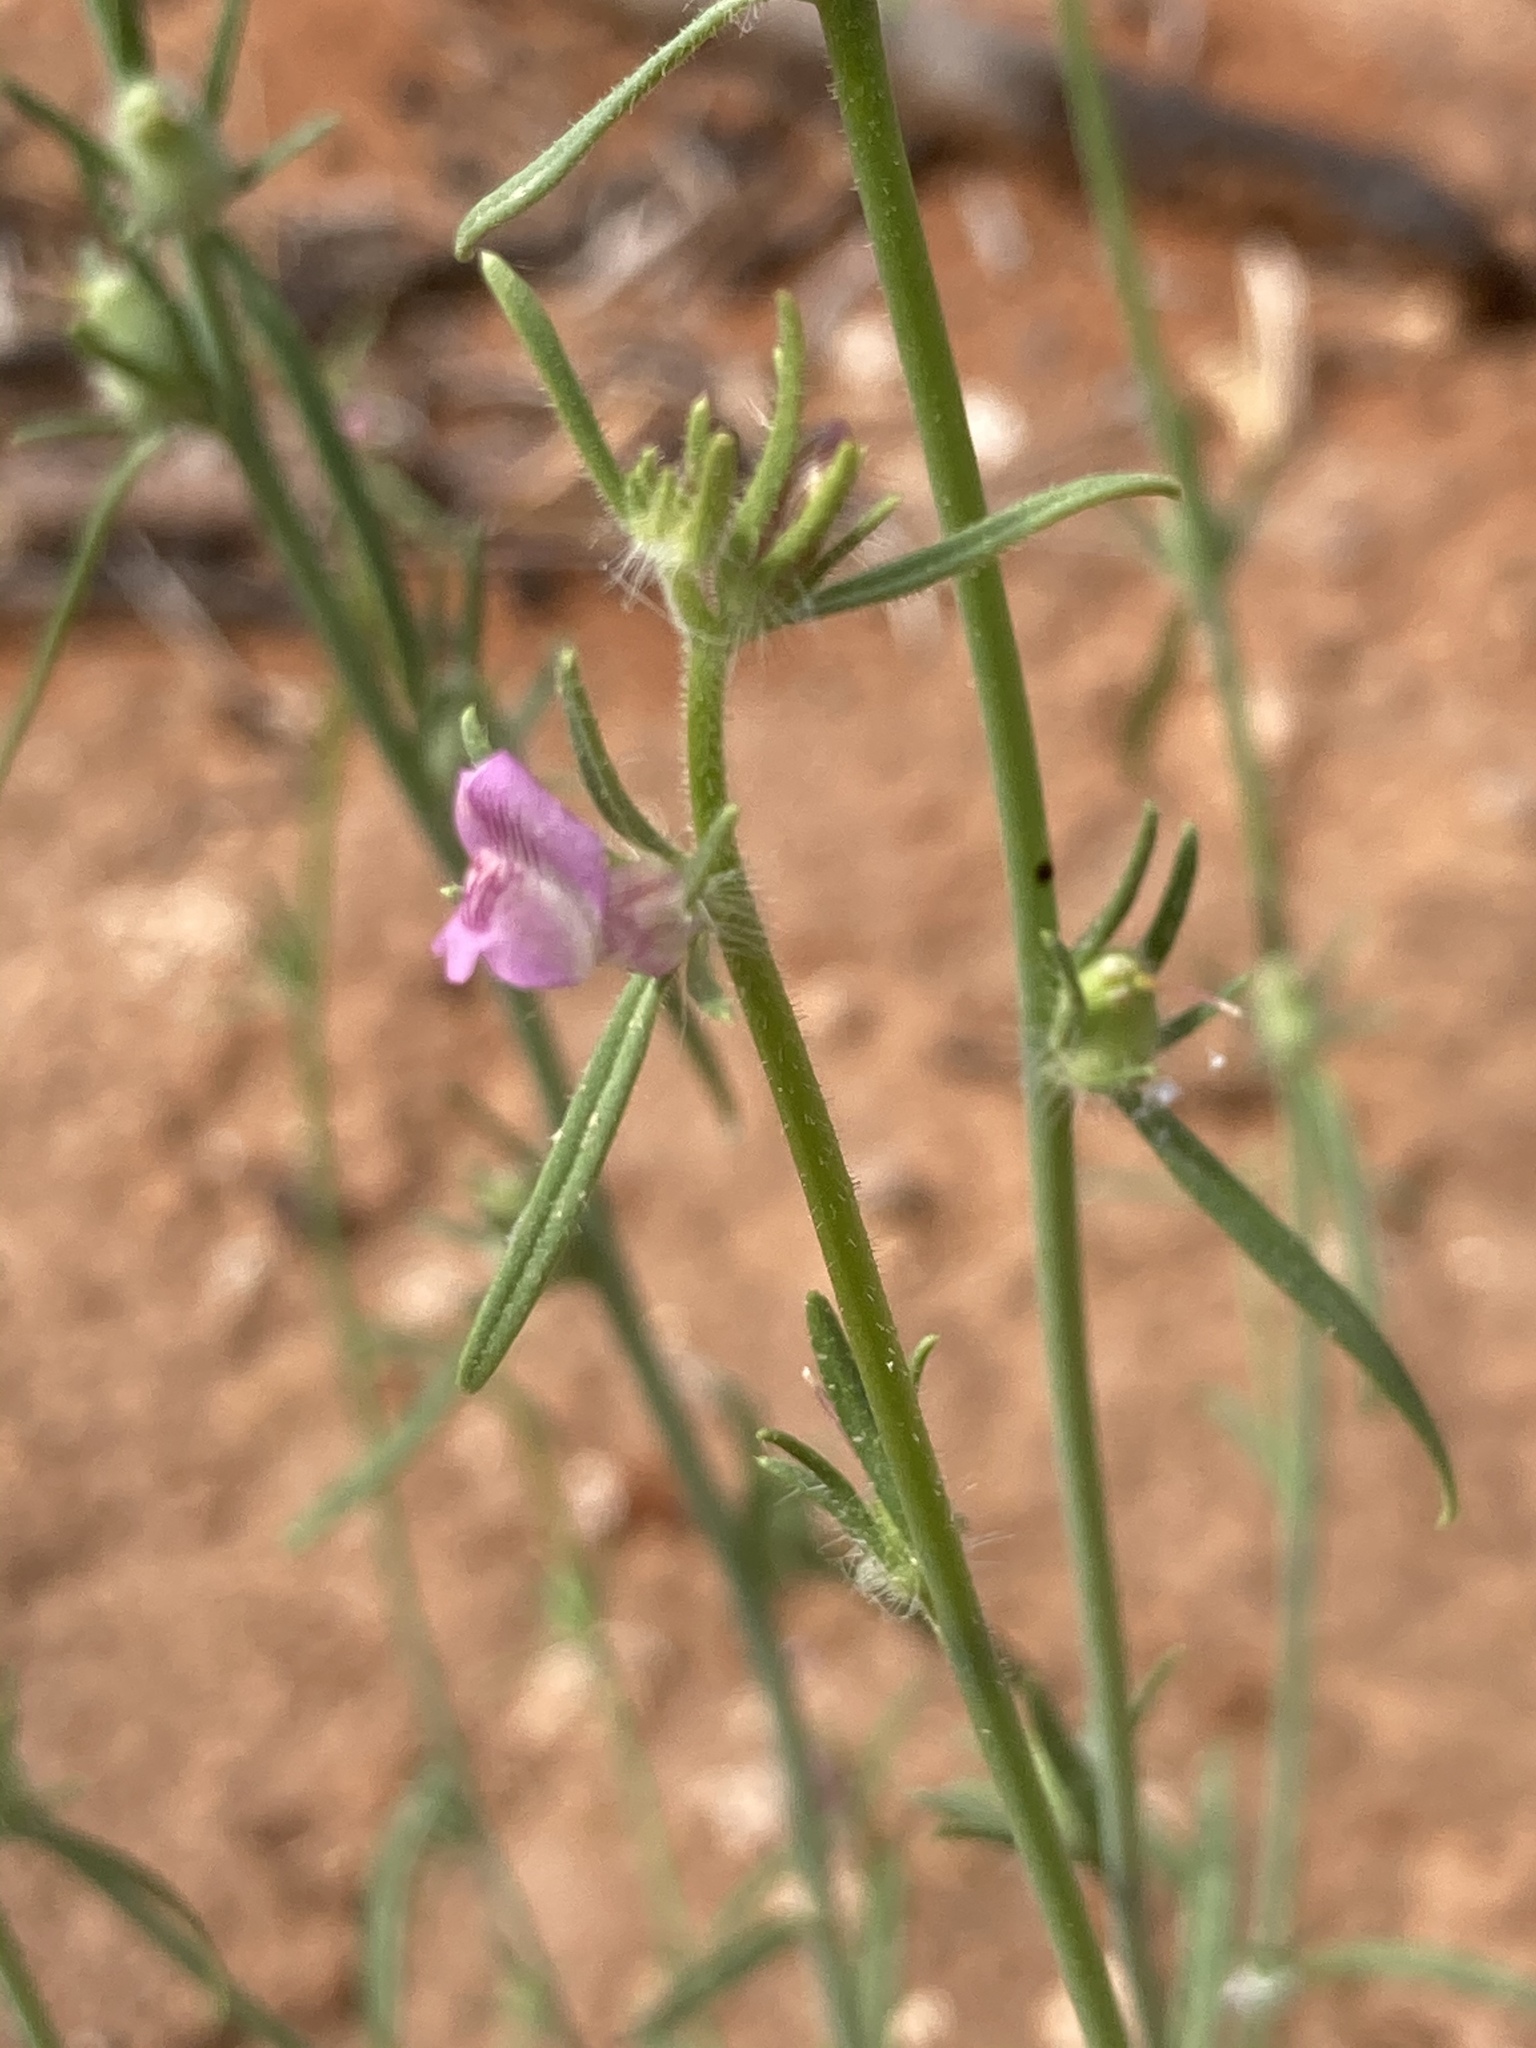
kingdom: Plantae
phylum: Tracheophyta
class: Magnoliopsida
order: Lamiales
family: Plantaginaceae
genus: Misopates
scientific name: Misopates orontium
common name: Weasel's-snout
